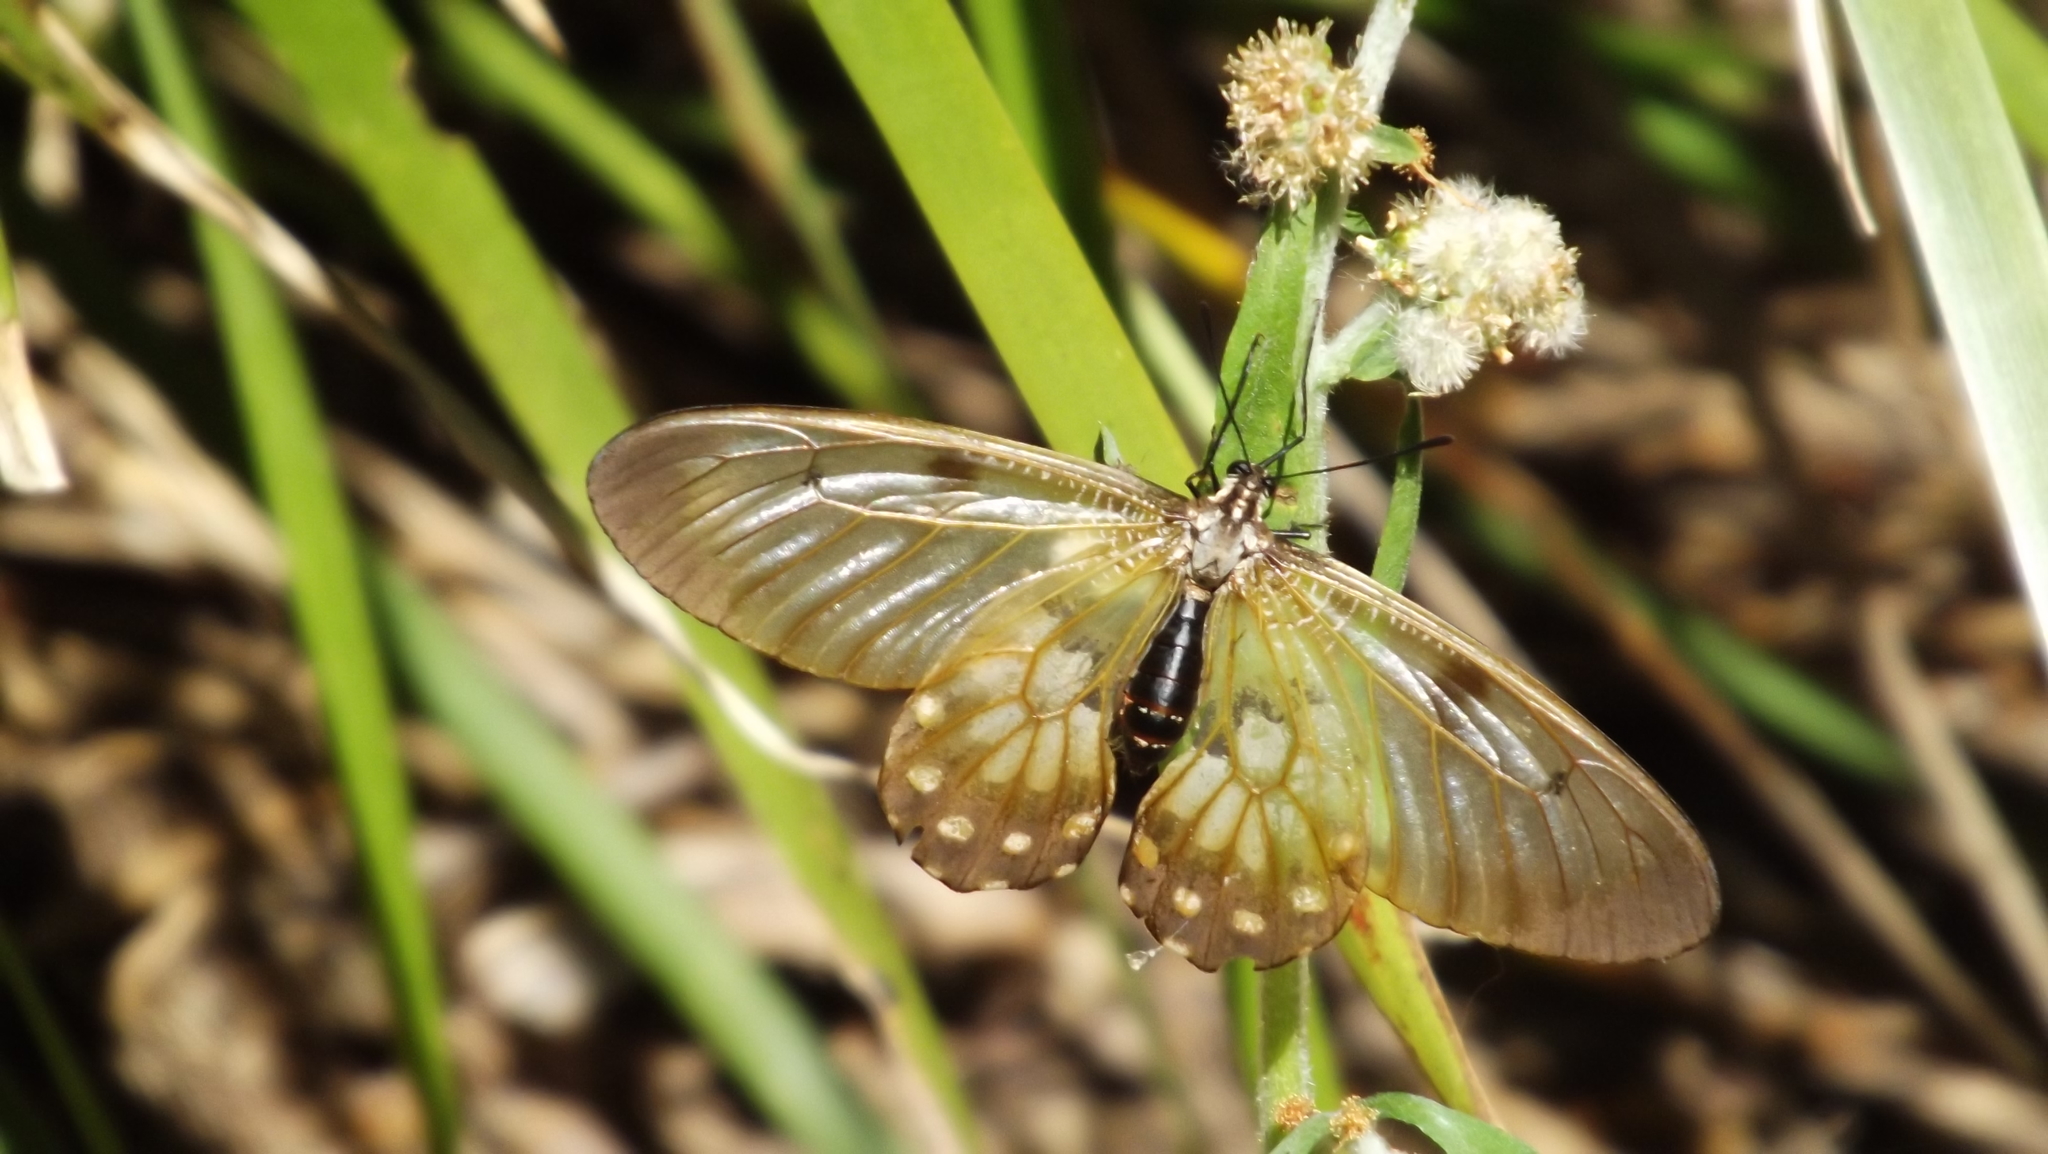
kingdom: Animalia
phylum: Arthropoda
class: Insecta
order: Lepidoptera
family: Papilionidae
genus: Cressida
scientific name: Cressida cressida
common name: Big greasy
